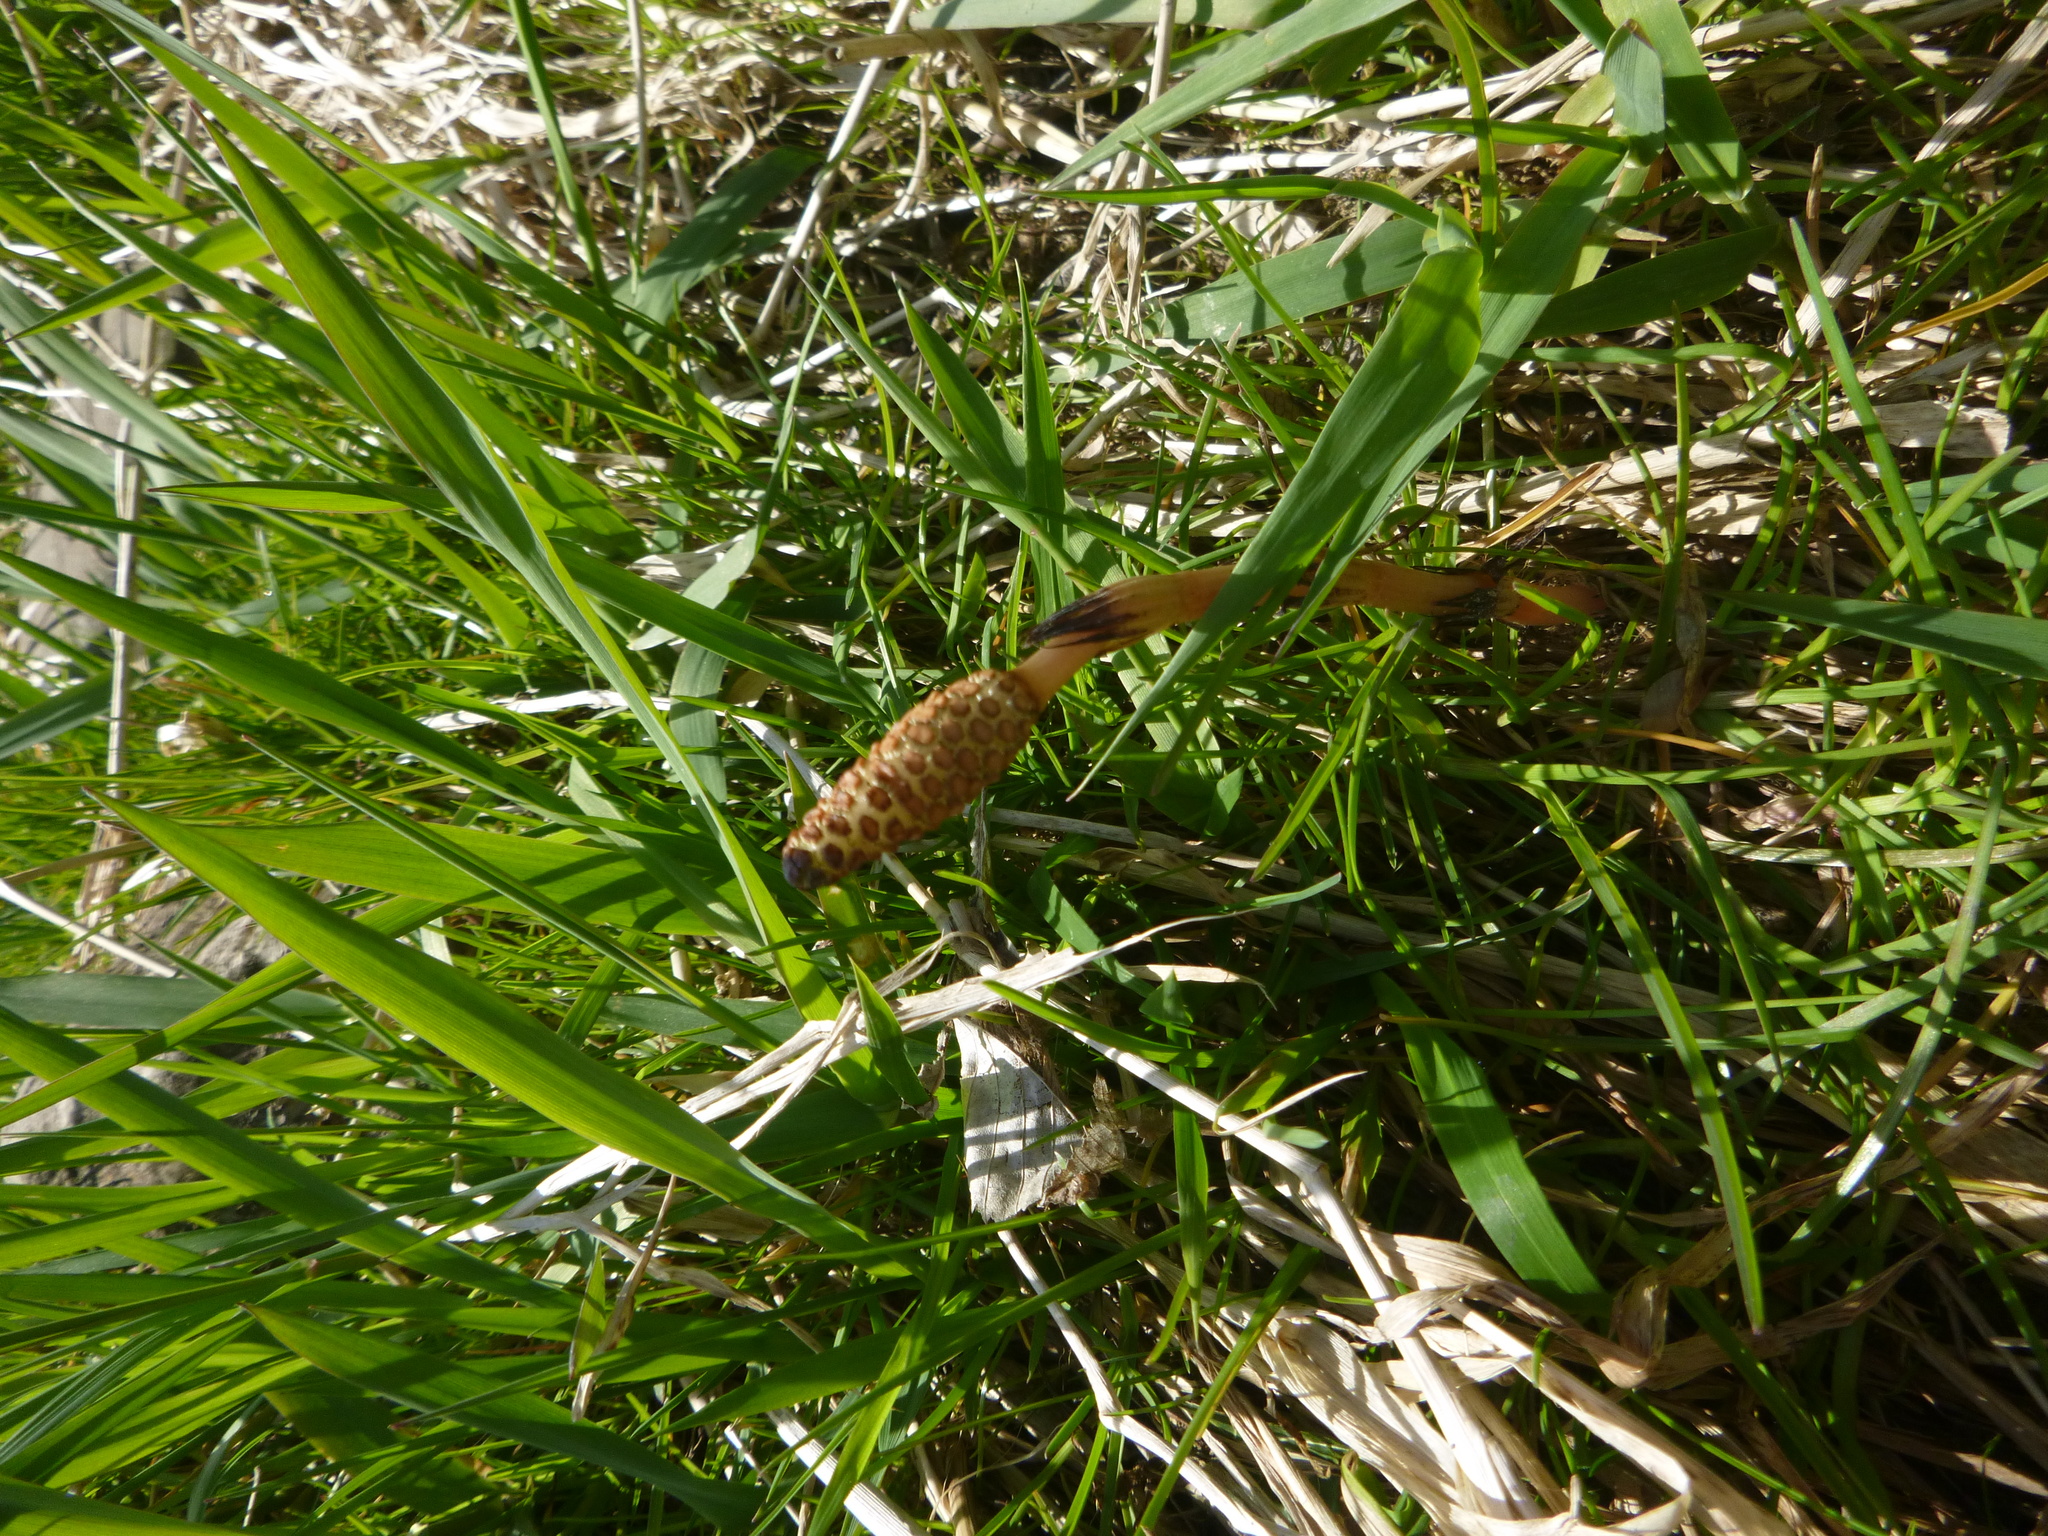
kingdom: Plantae
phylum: Tracheophyta
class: Polypodiopsida
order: Equisetales
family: Equisetaceae
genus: Equisetum
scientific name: Equisetum arvense
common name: Field horsetail
